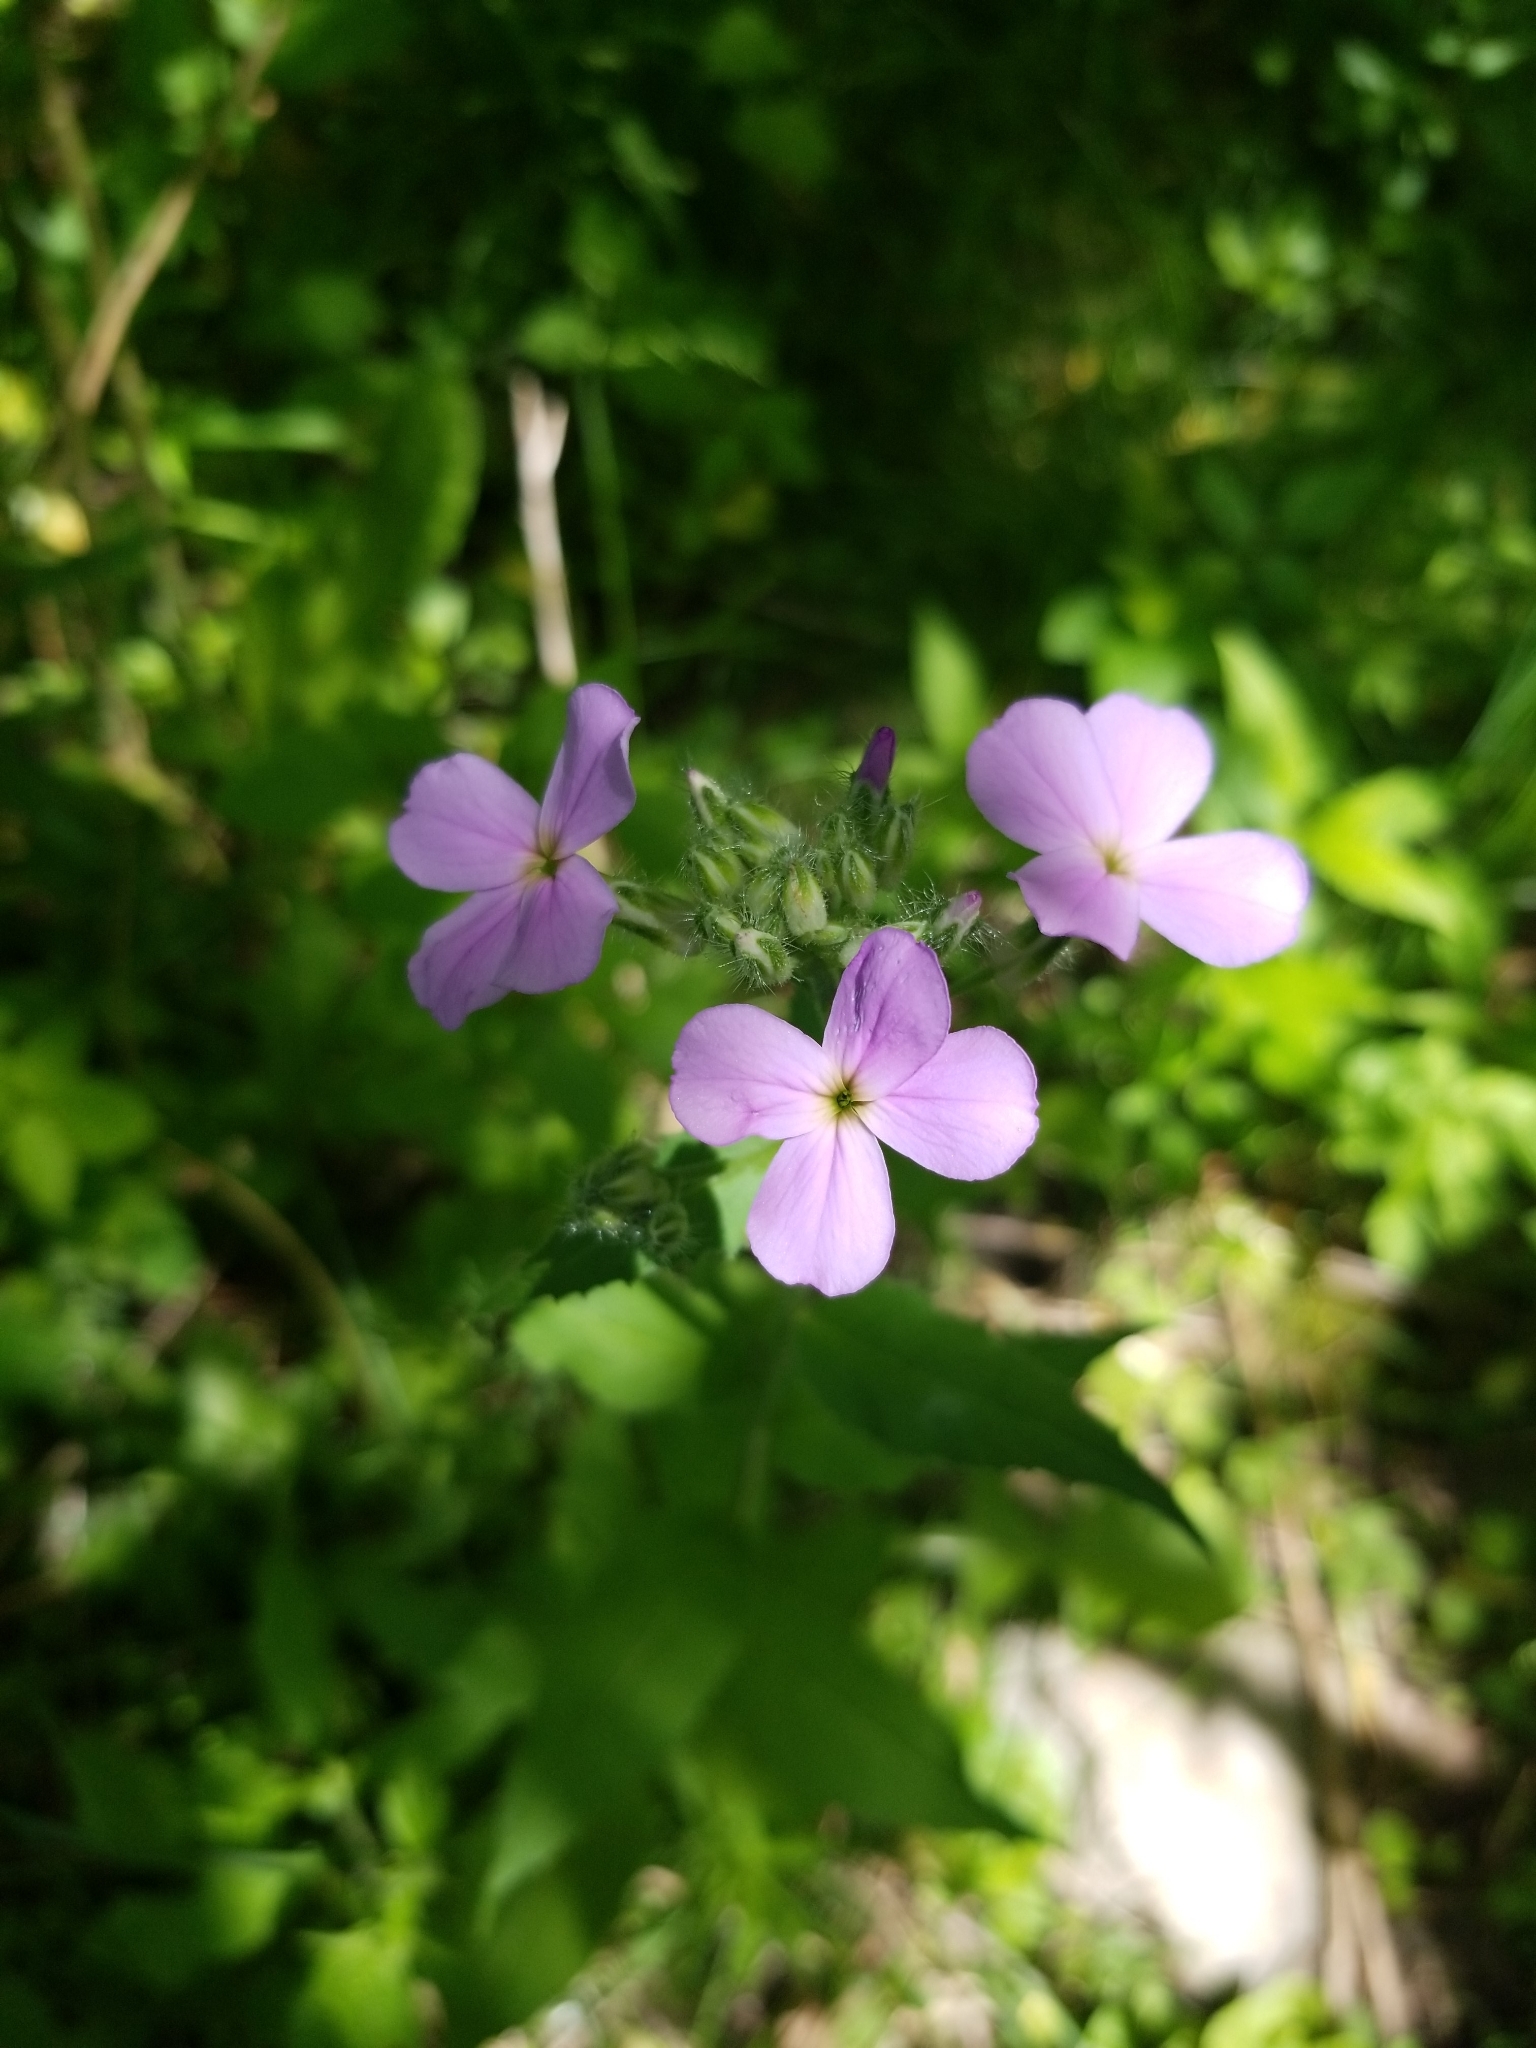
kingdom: Plantae
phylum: Tracheophyta
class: Magnoliopsida
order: Brassicales
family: Brassicaceae
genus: Hesperis
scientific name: Hesperis matronalis
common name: Dame's-violet
